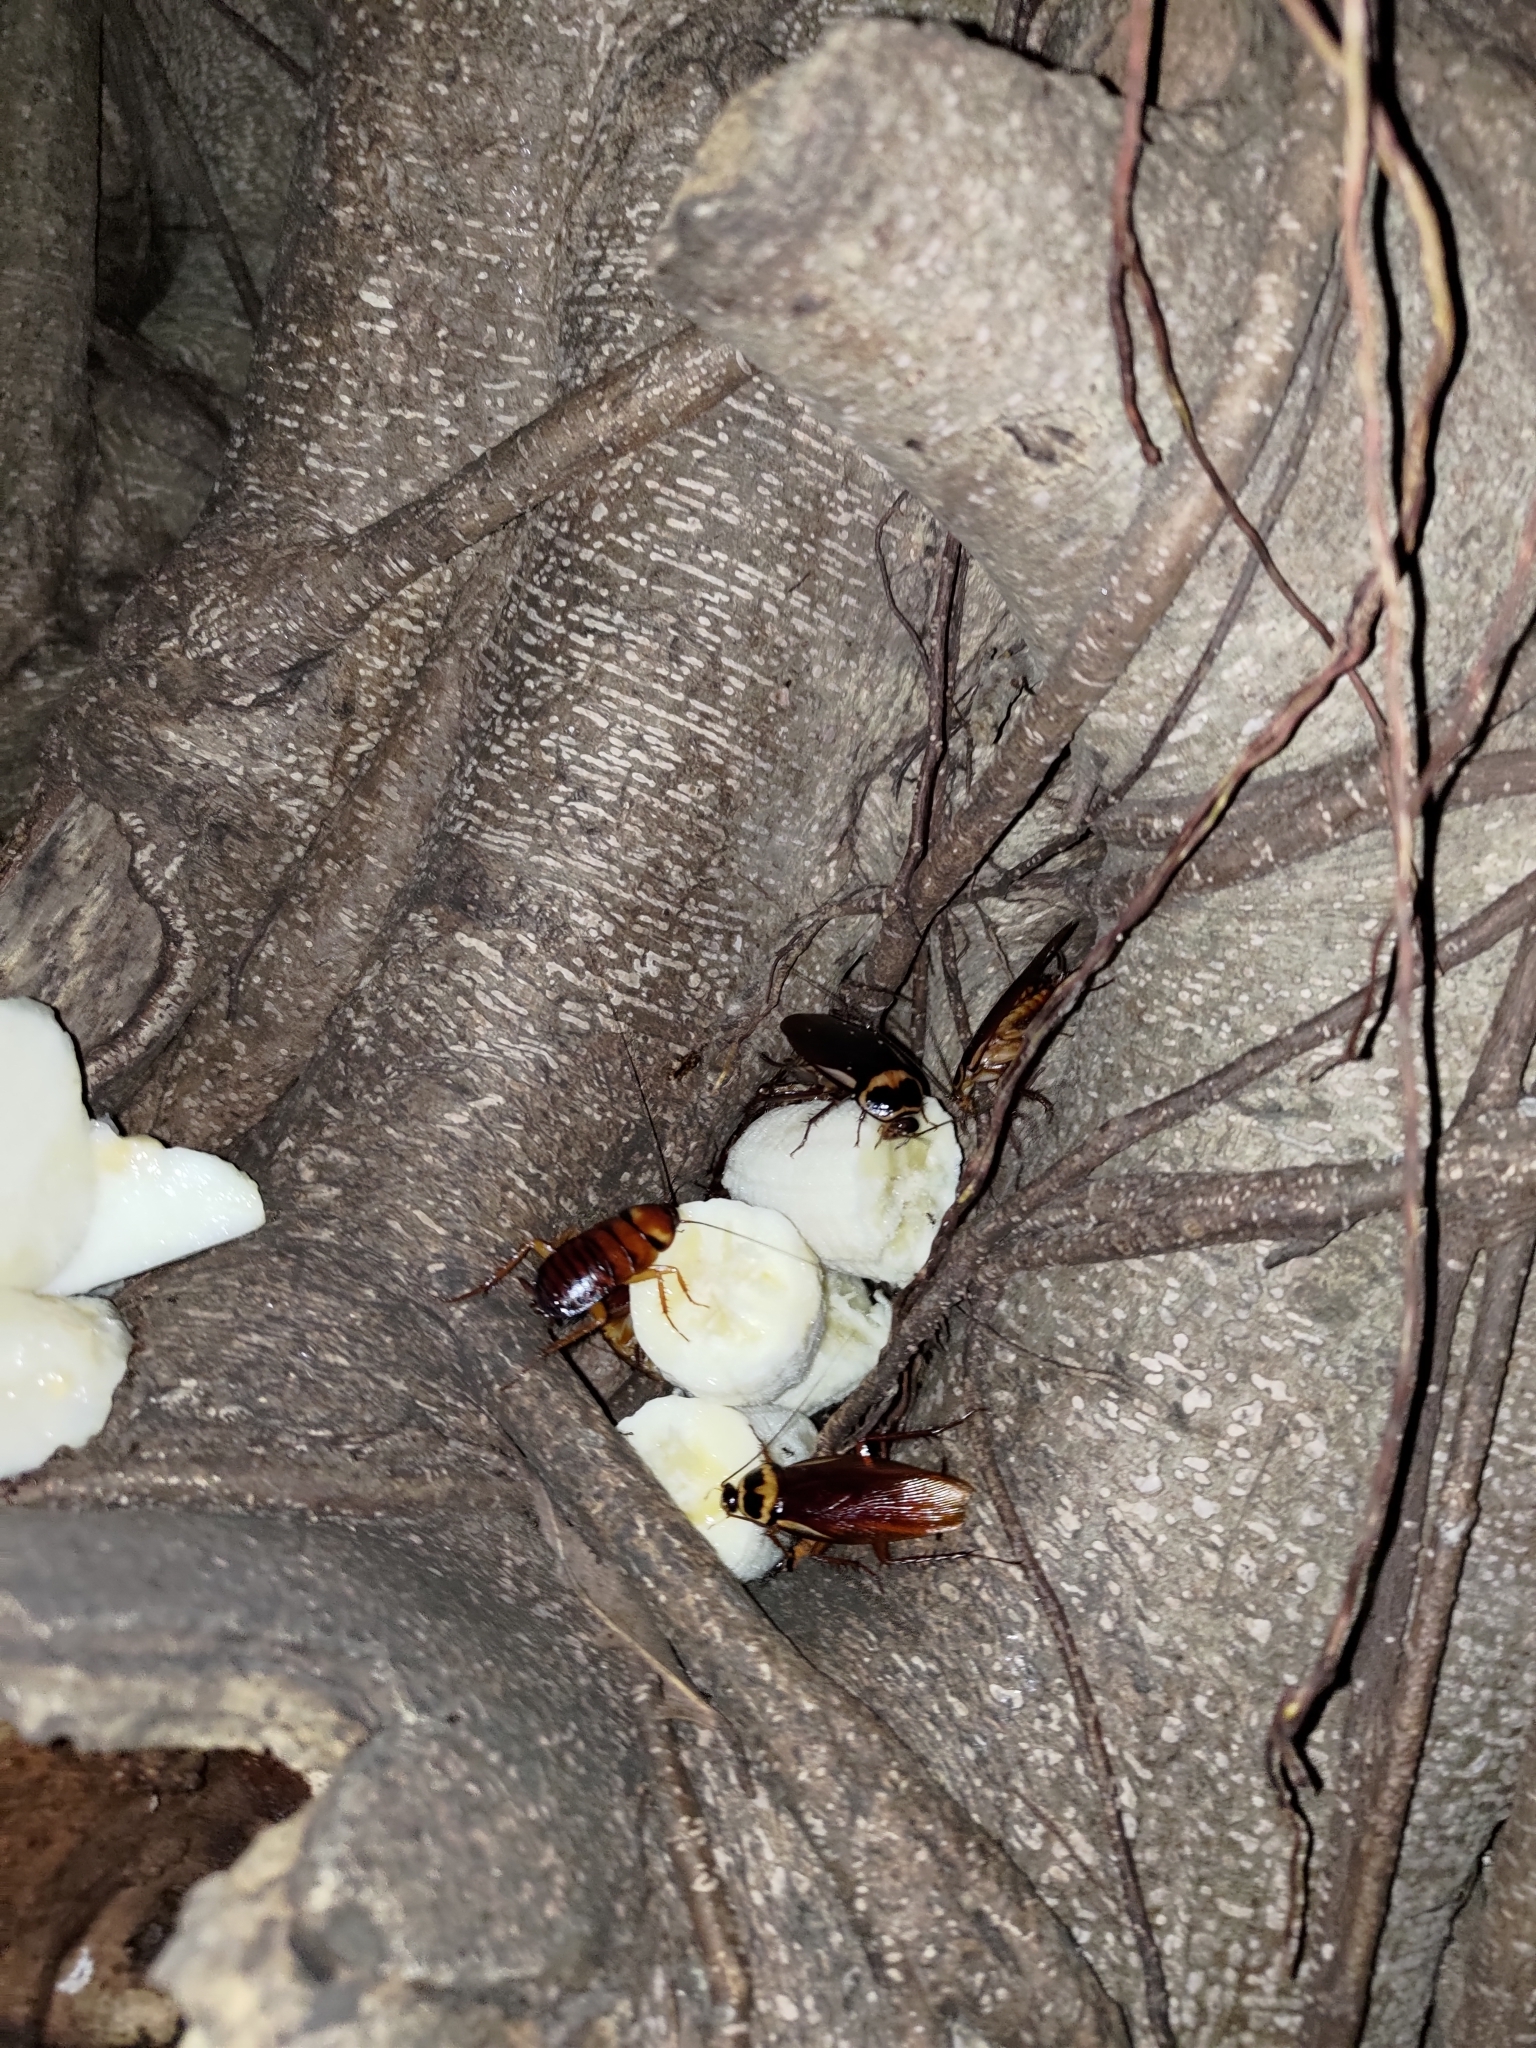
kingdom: Animalia
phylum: Arthropoda
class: Insecta
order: Blattodea
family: Blattidae
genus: Periplaneta
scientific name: Periplaneta australasiae
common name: Australian cockroach
